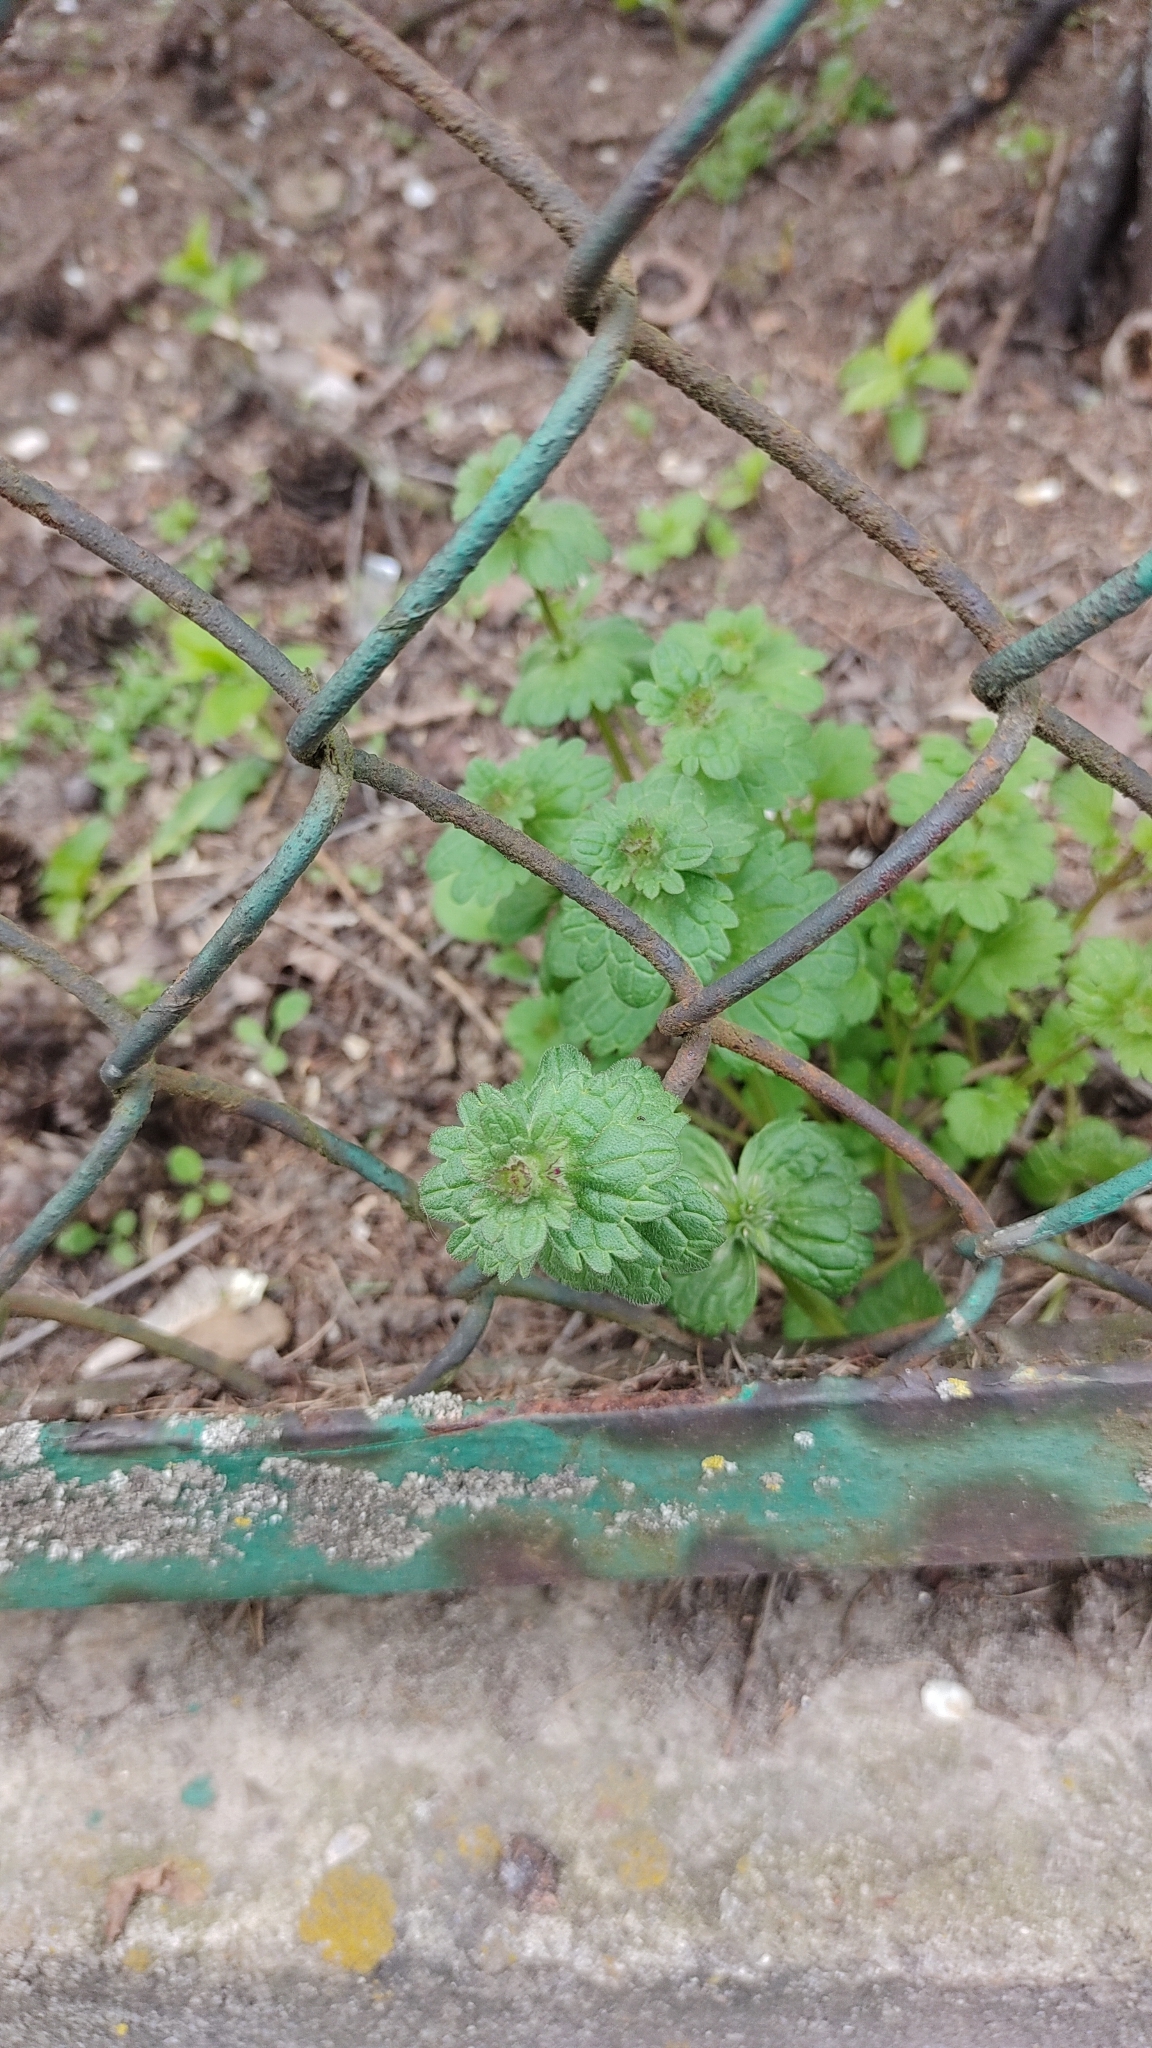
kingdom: Plantae
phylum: Tracheophyta
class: Magnoliopsida
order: Lamiales
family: Lamiaceae
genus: Lamium
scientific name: Lamium amplexicaule
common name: Henbit dead-nettle
